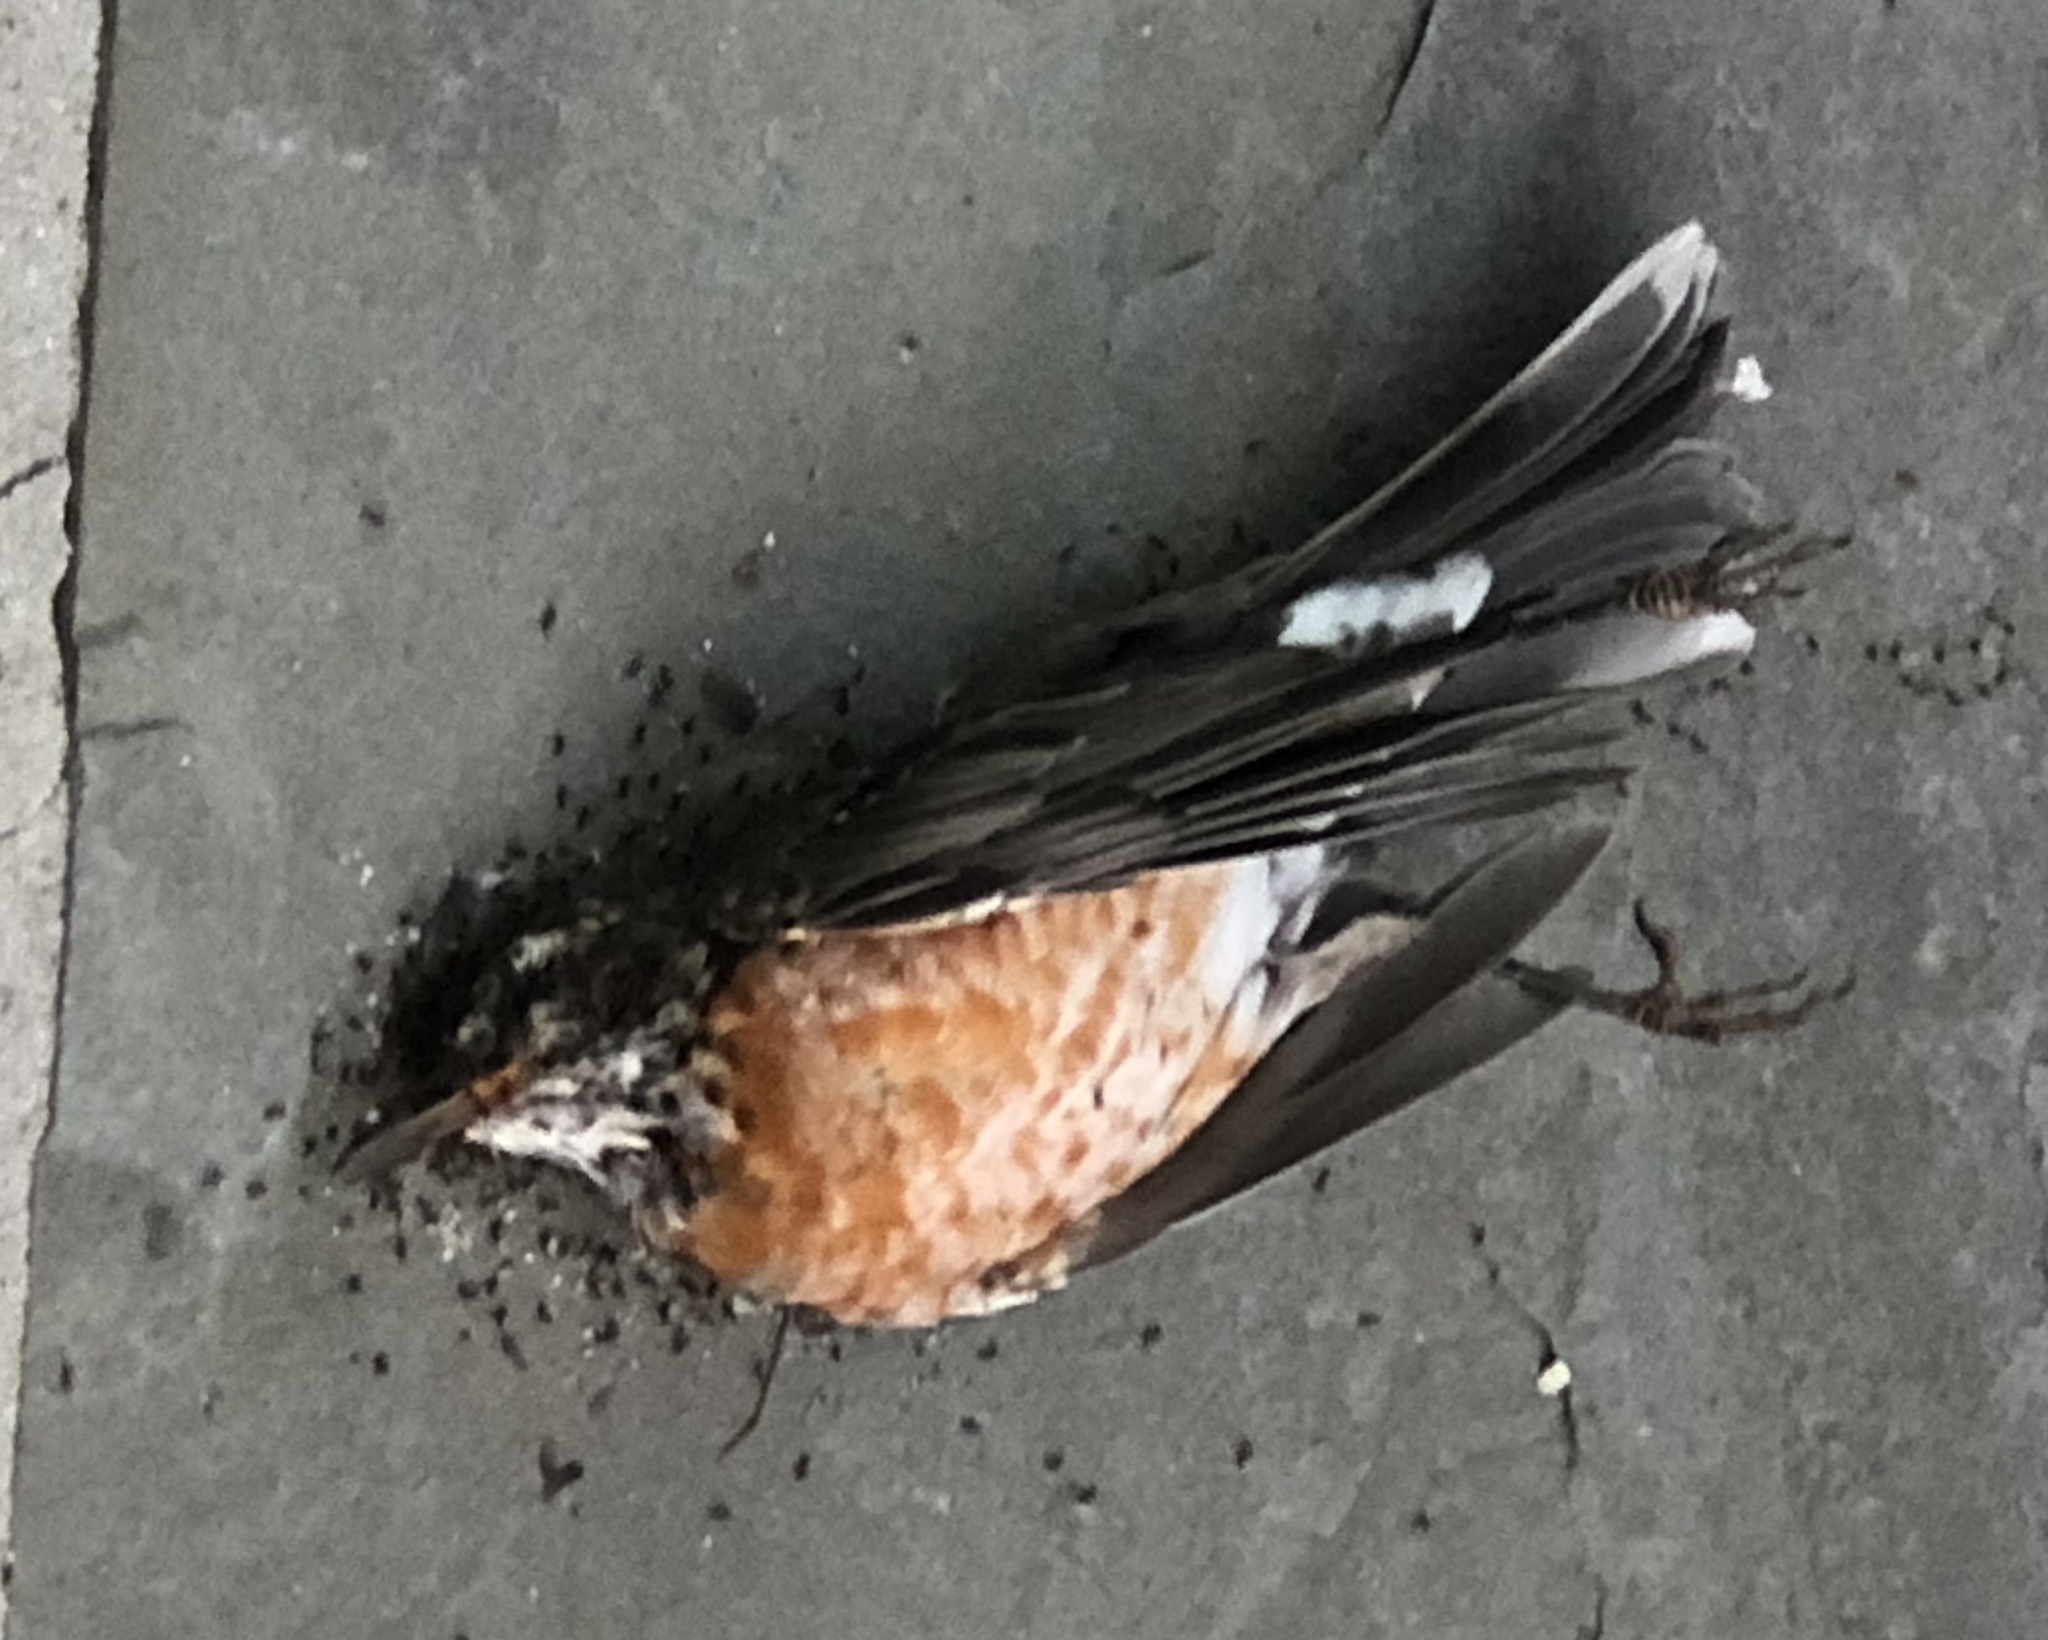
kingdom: Animalia
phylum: Chordata
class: Aves
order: Passeriformes
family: Turdidae
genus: Turdus
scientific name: Turdus migratorius
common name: American robin
